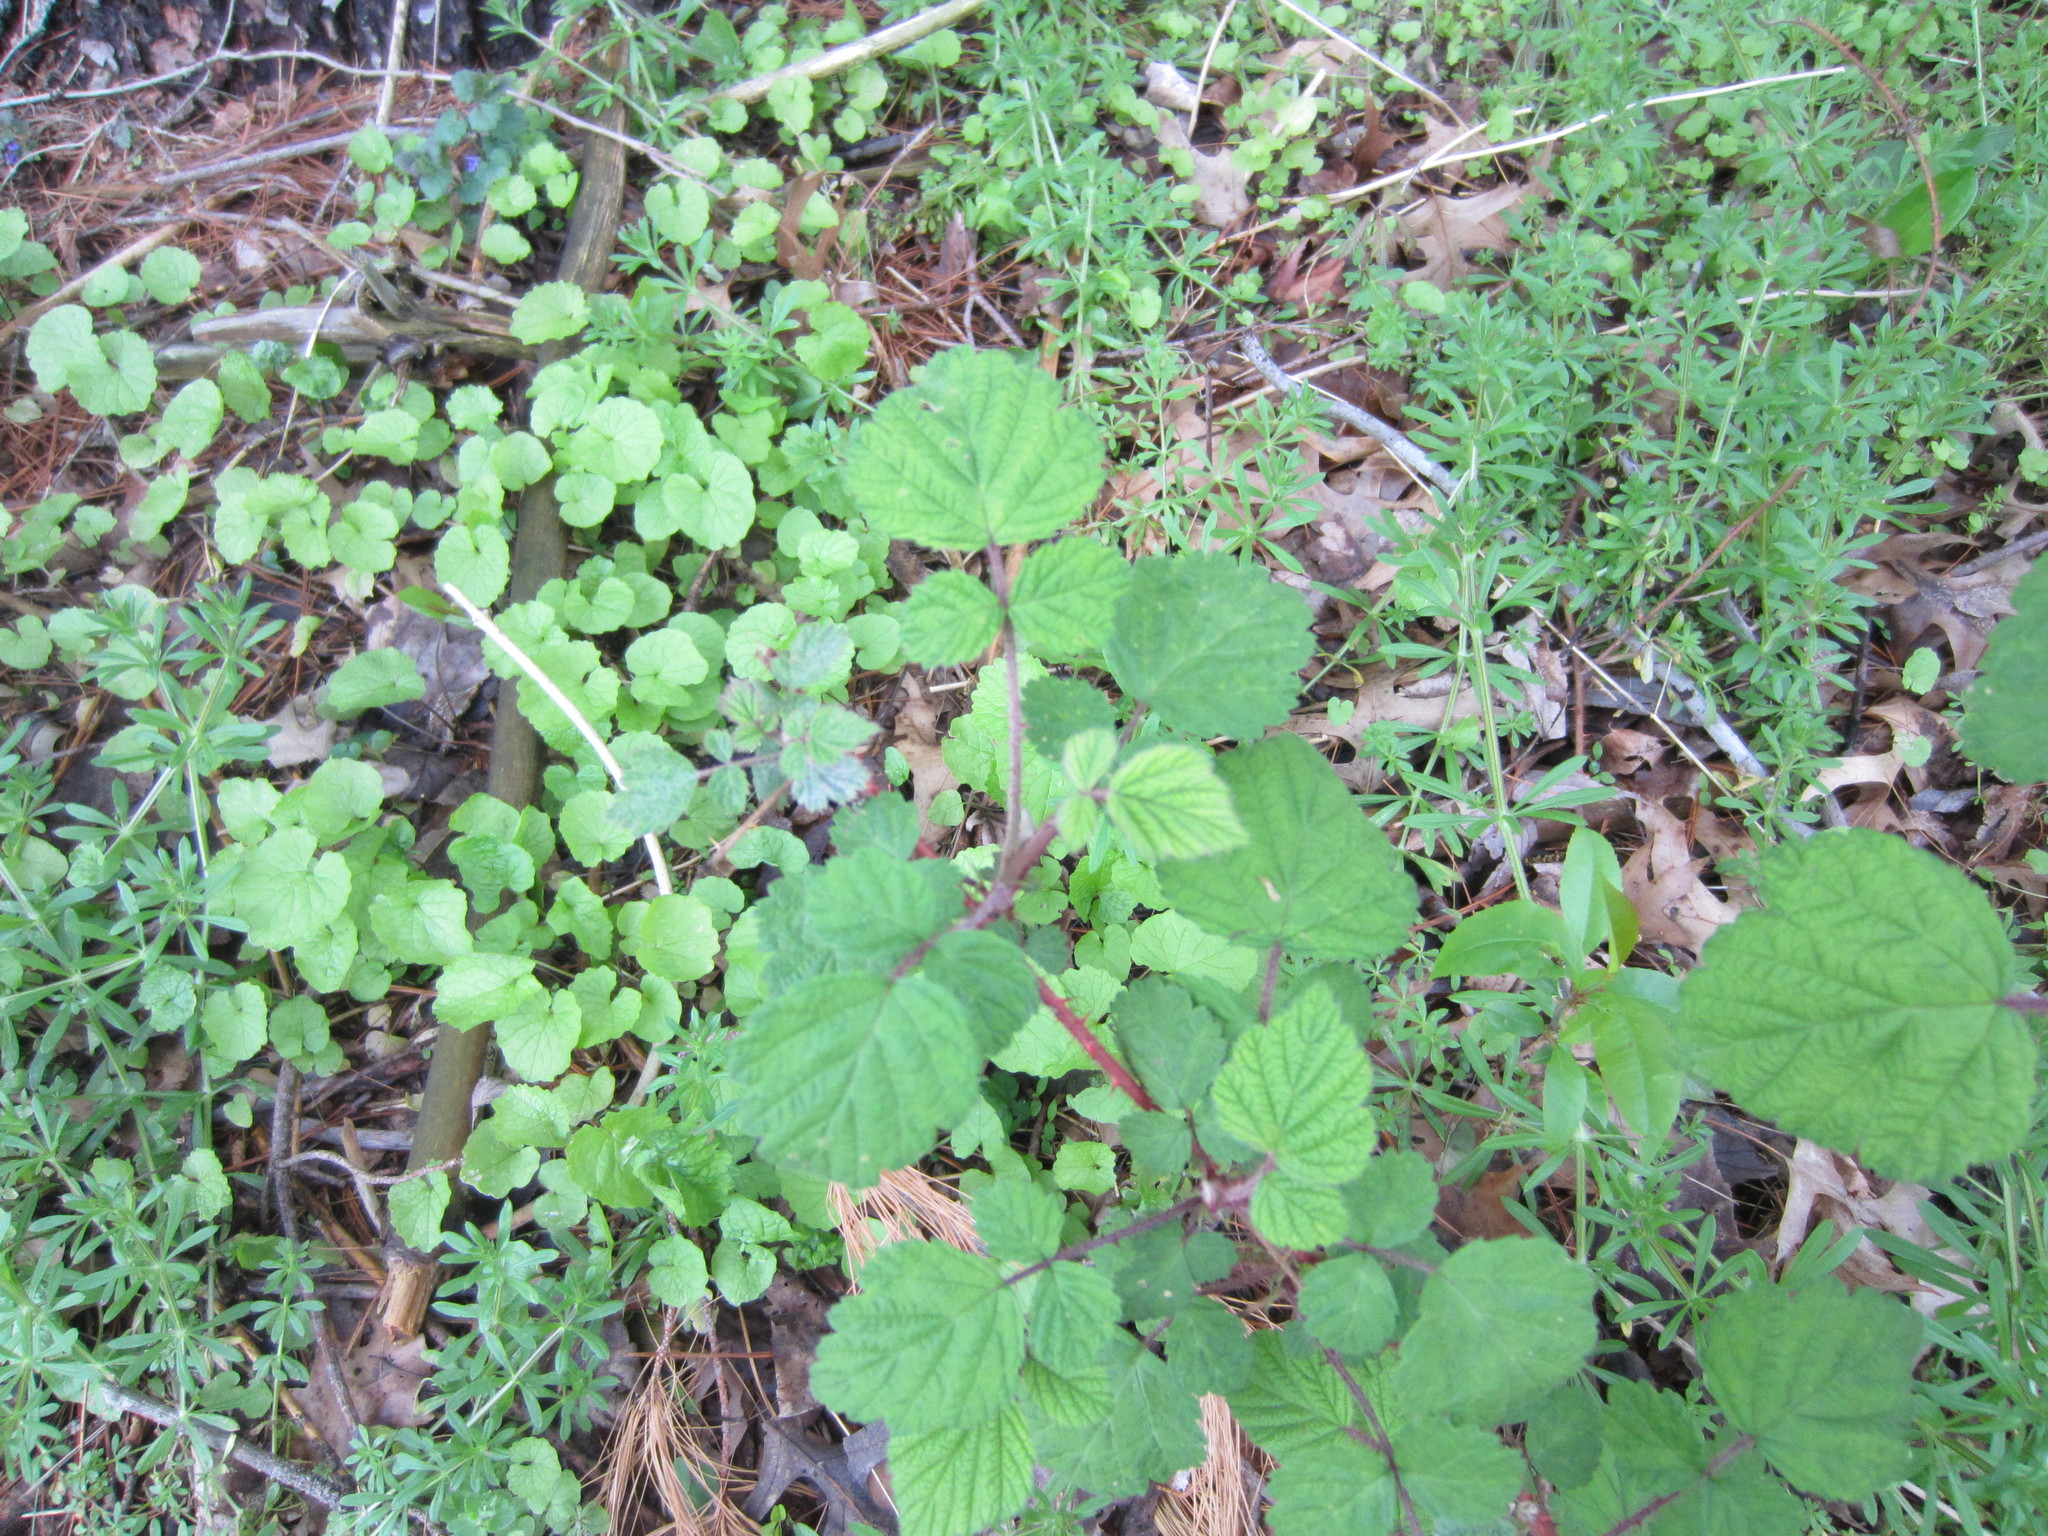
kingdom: Plantae
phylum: Tracheophyta
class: Magnoliopsida
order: Rosales
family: Rosaceae
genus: Rubus
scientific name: Rubus phoenicolasius
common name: Japanese wineberry
